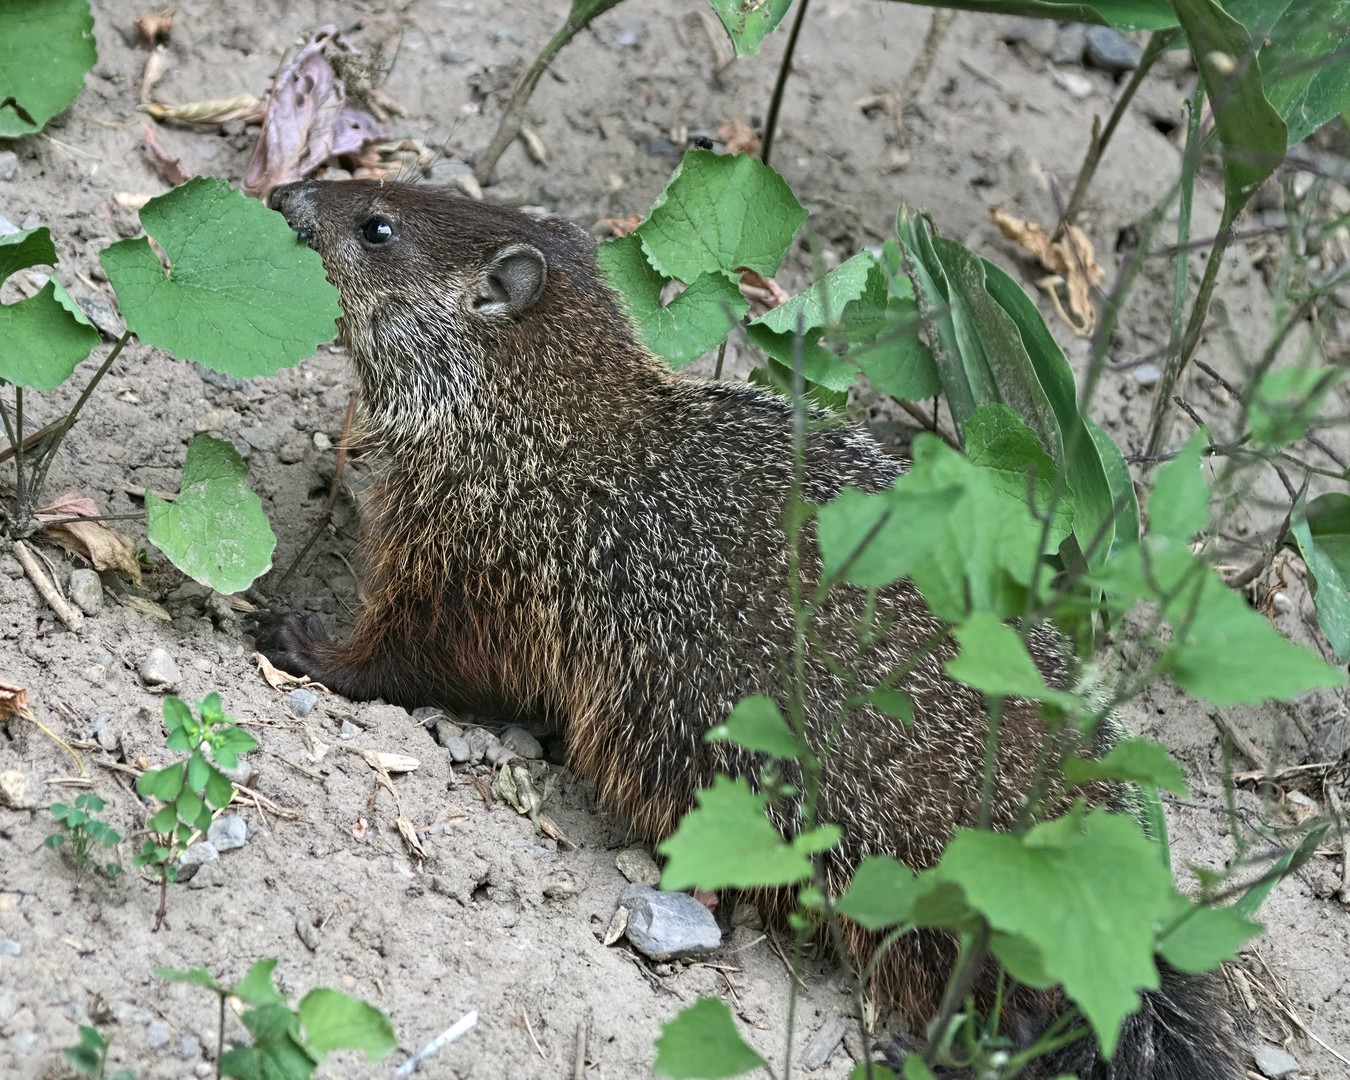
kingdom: Animalia
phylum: Chordata
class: Mammalia
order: Rodentia
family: Sciuridae
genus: Marmota
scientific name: Marmota monax
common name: Groundhog
